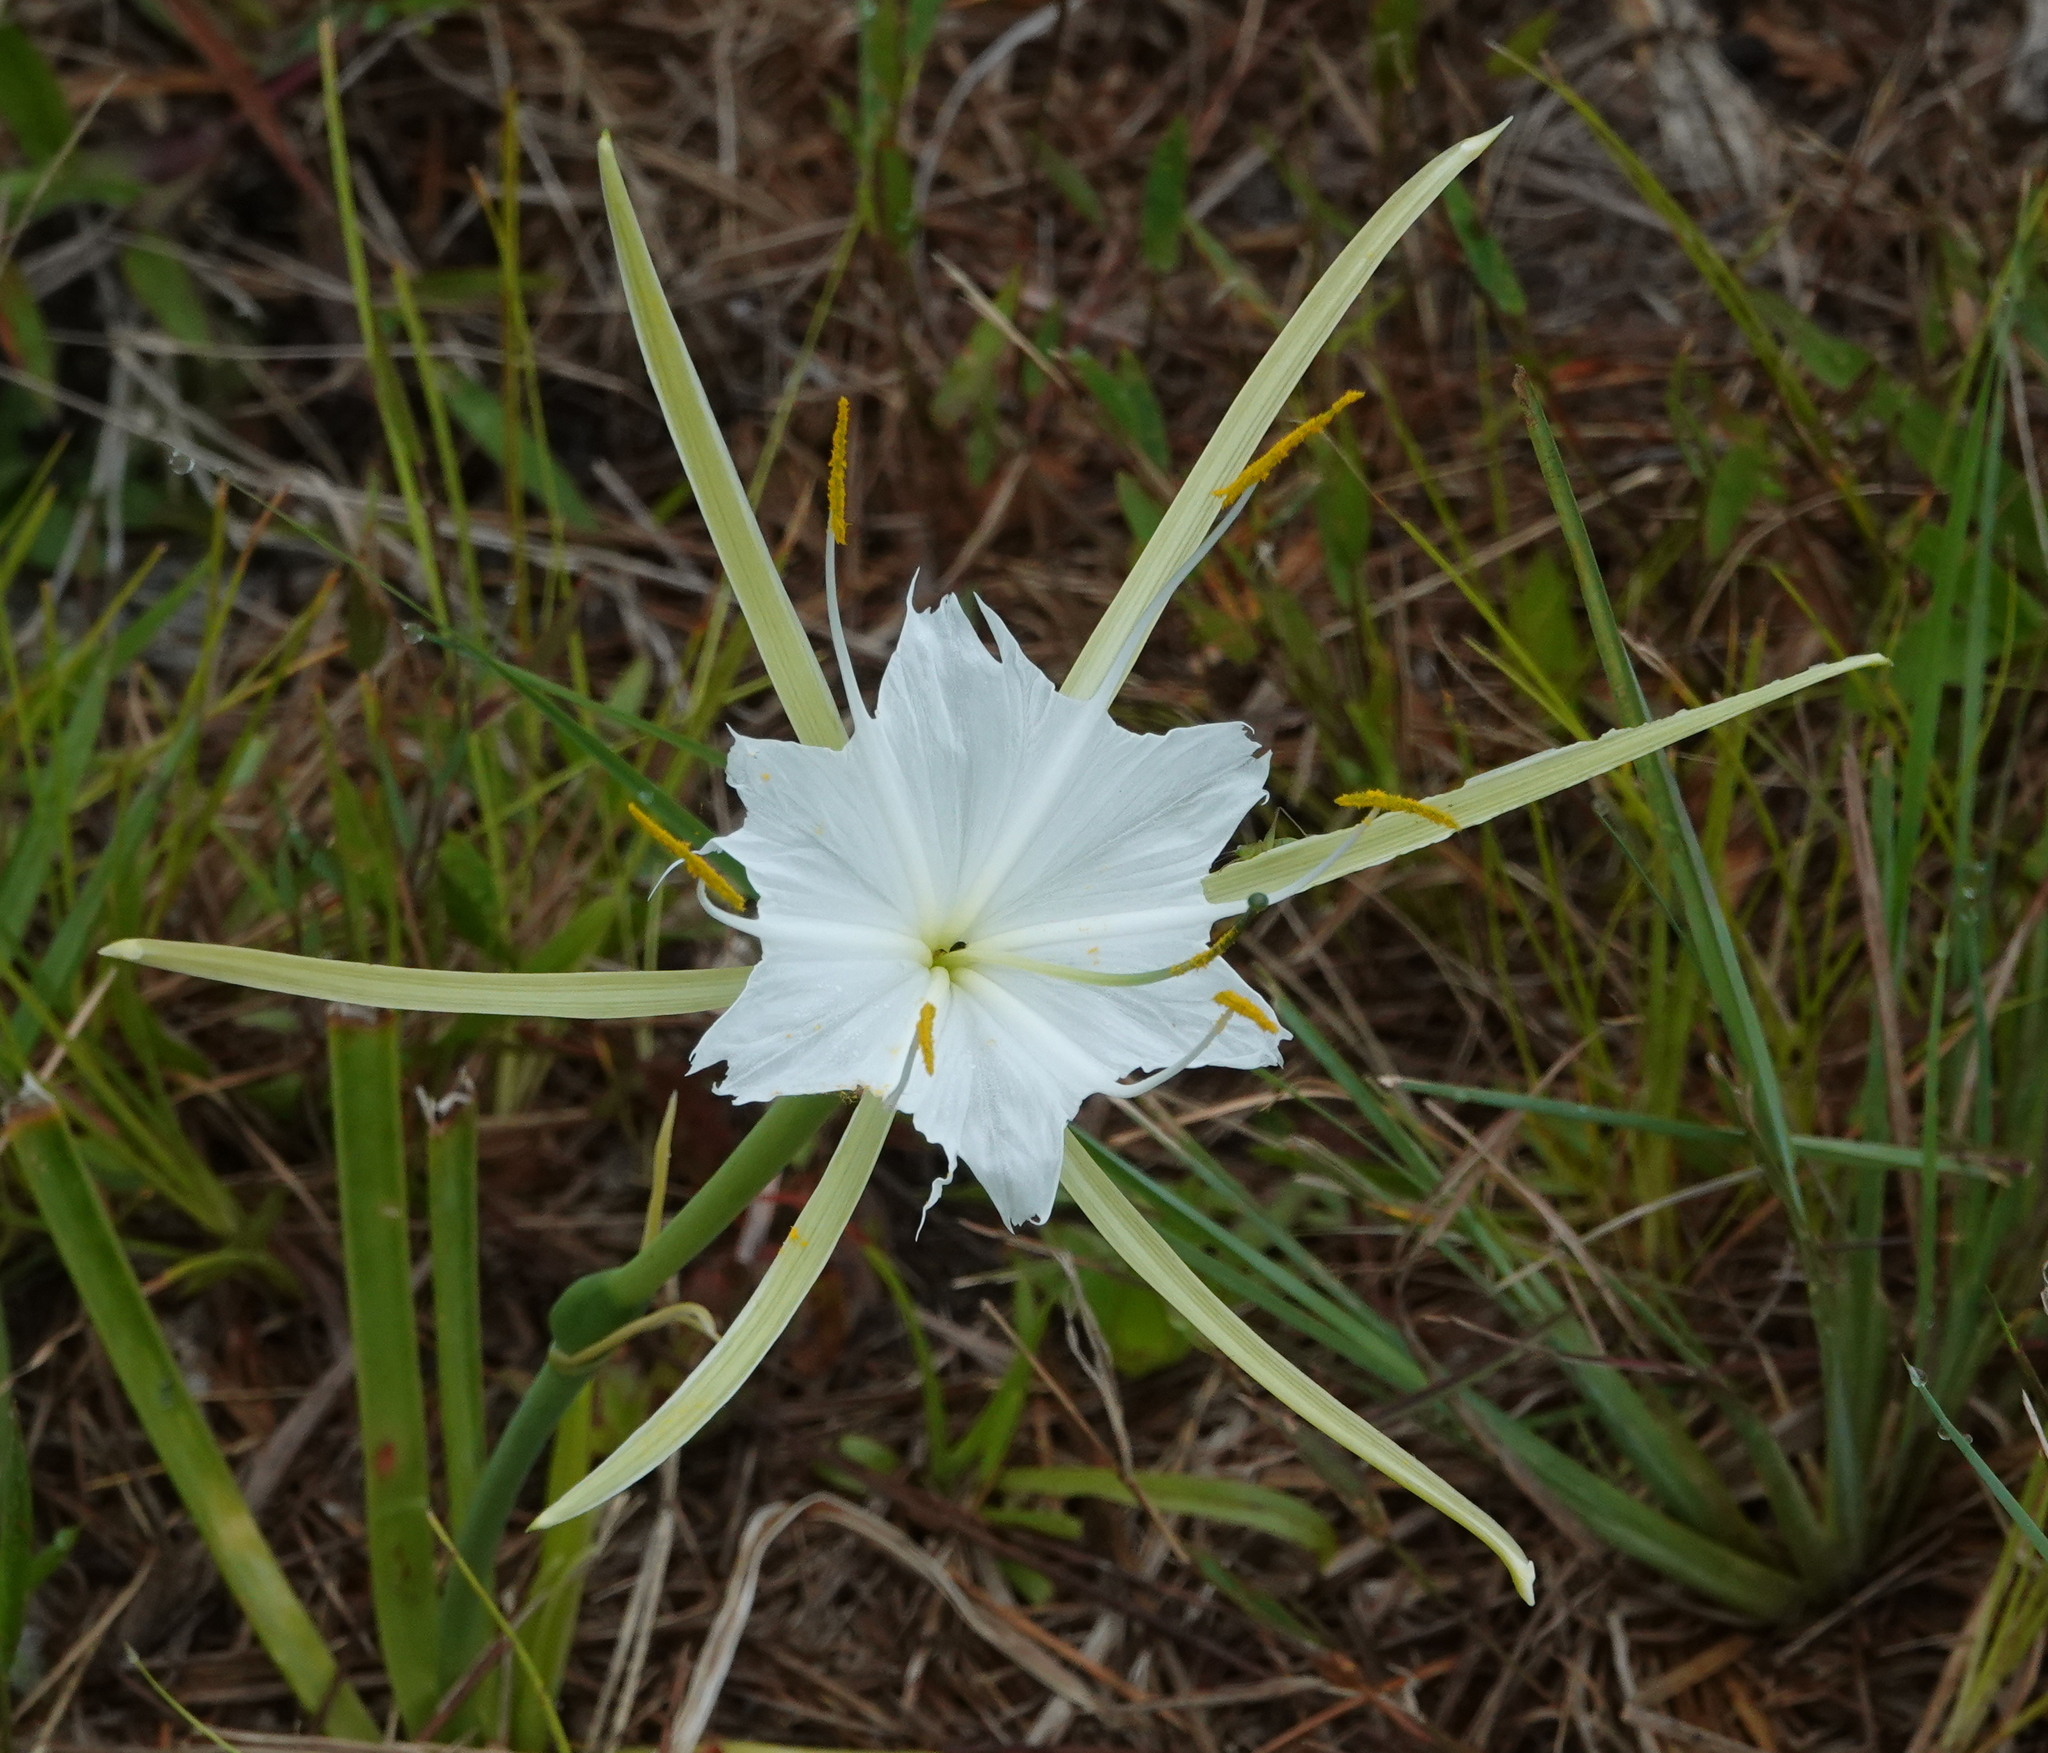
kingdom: Plantae
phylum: Tracheophyta
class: Liliopsida
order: Asparagales
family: Amaryllidaceae
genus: Hymenocallis
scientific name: Hymenocallis palmeri
